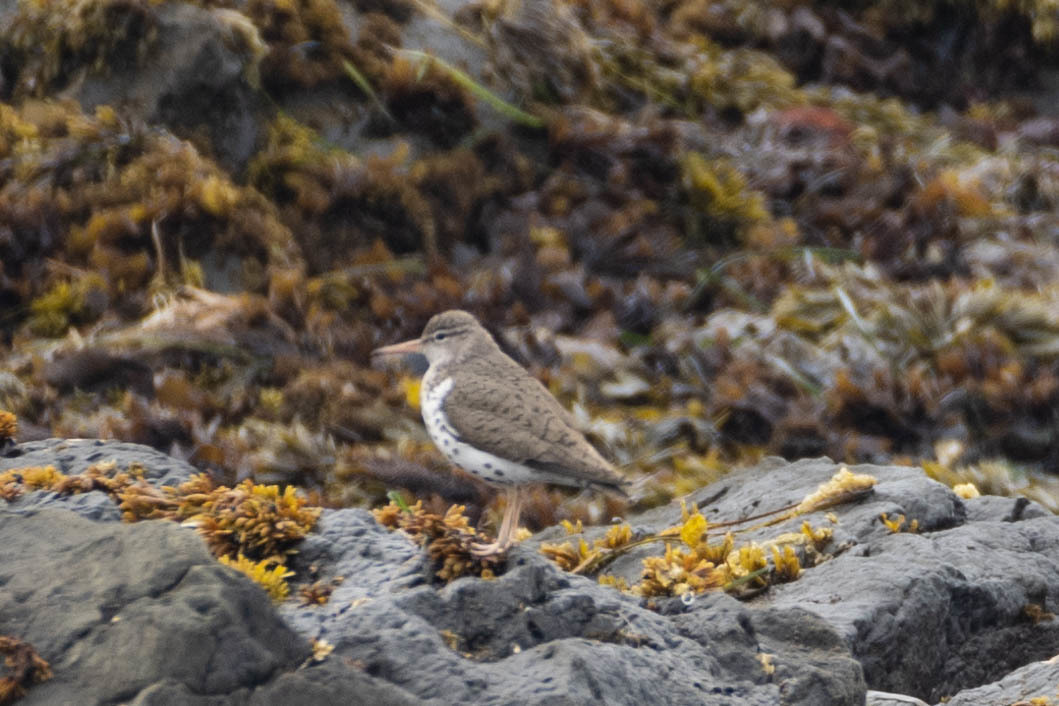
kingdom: Animalia
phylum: Chordata
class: Aves
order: Charadriiformes
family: Scolopacidae
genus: Actitis
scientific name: Actitis macularius
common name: Spotted sandpiper
